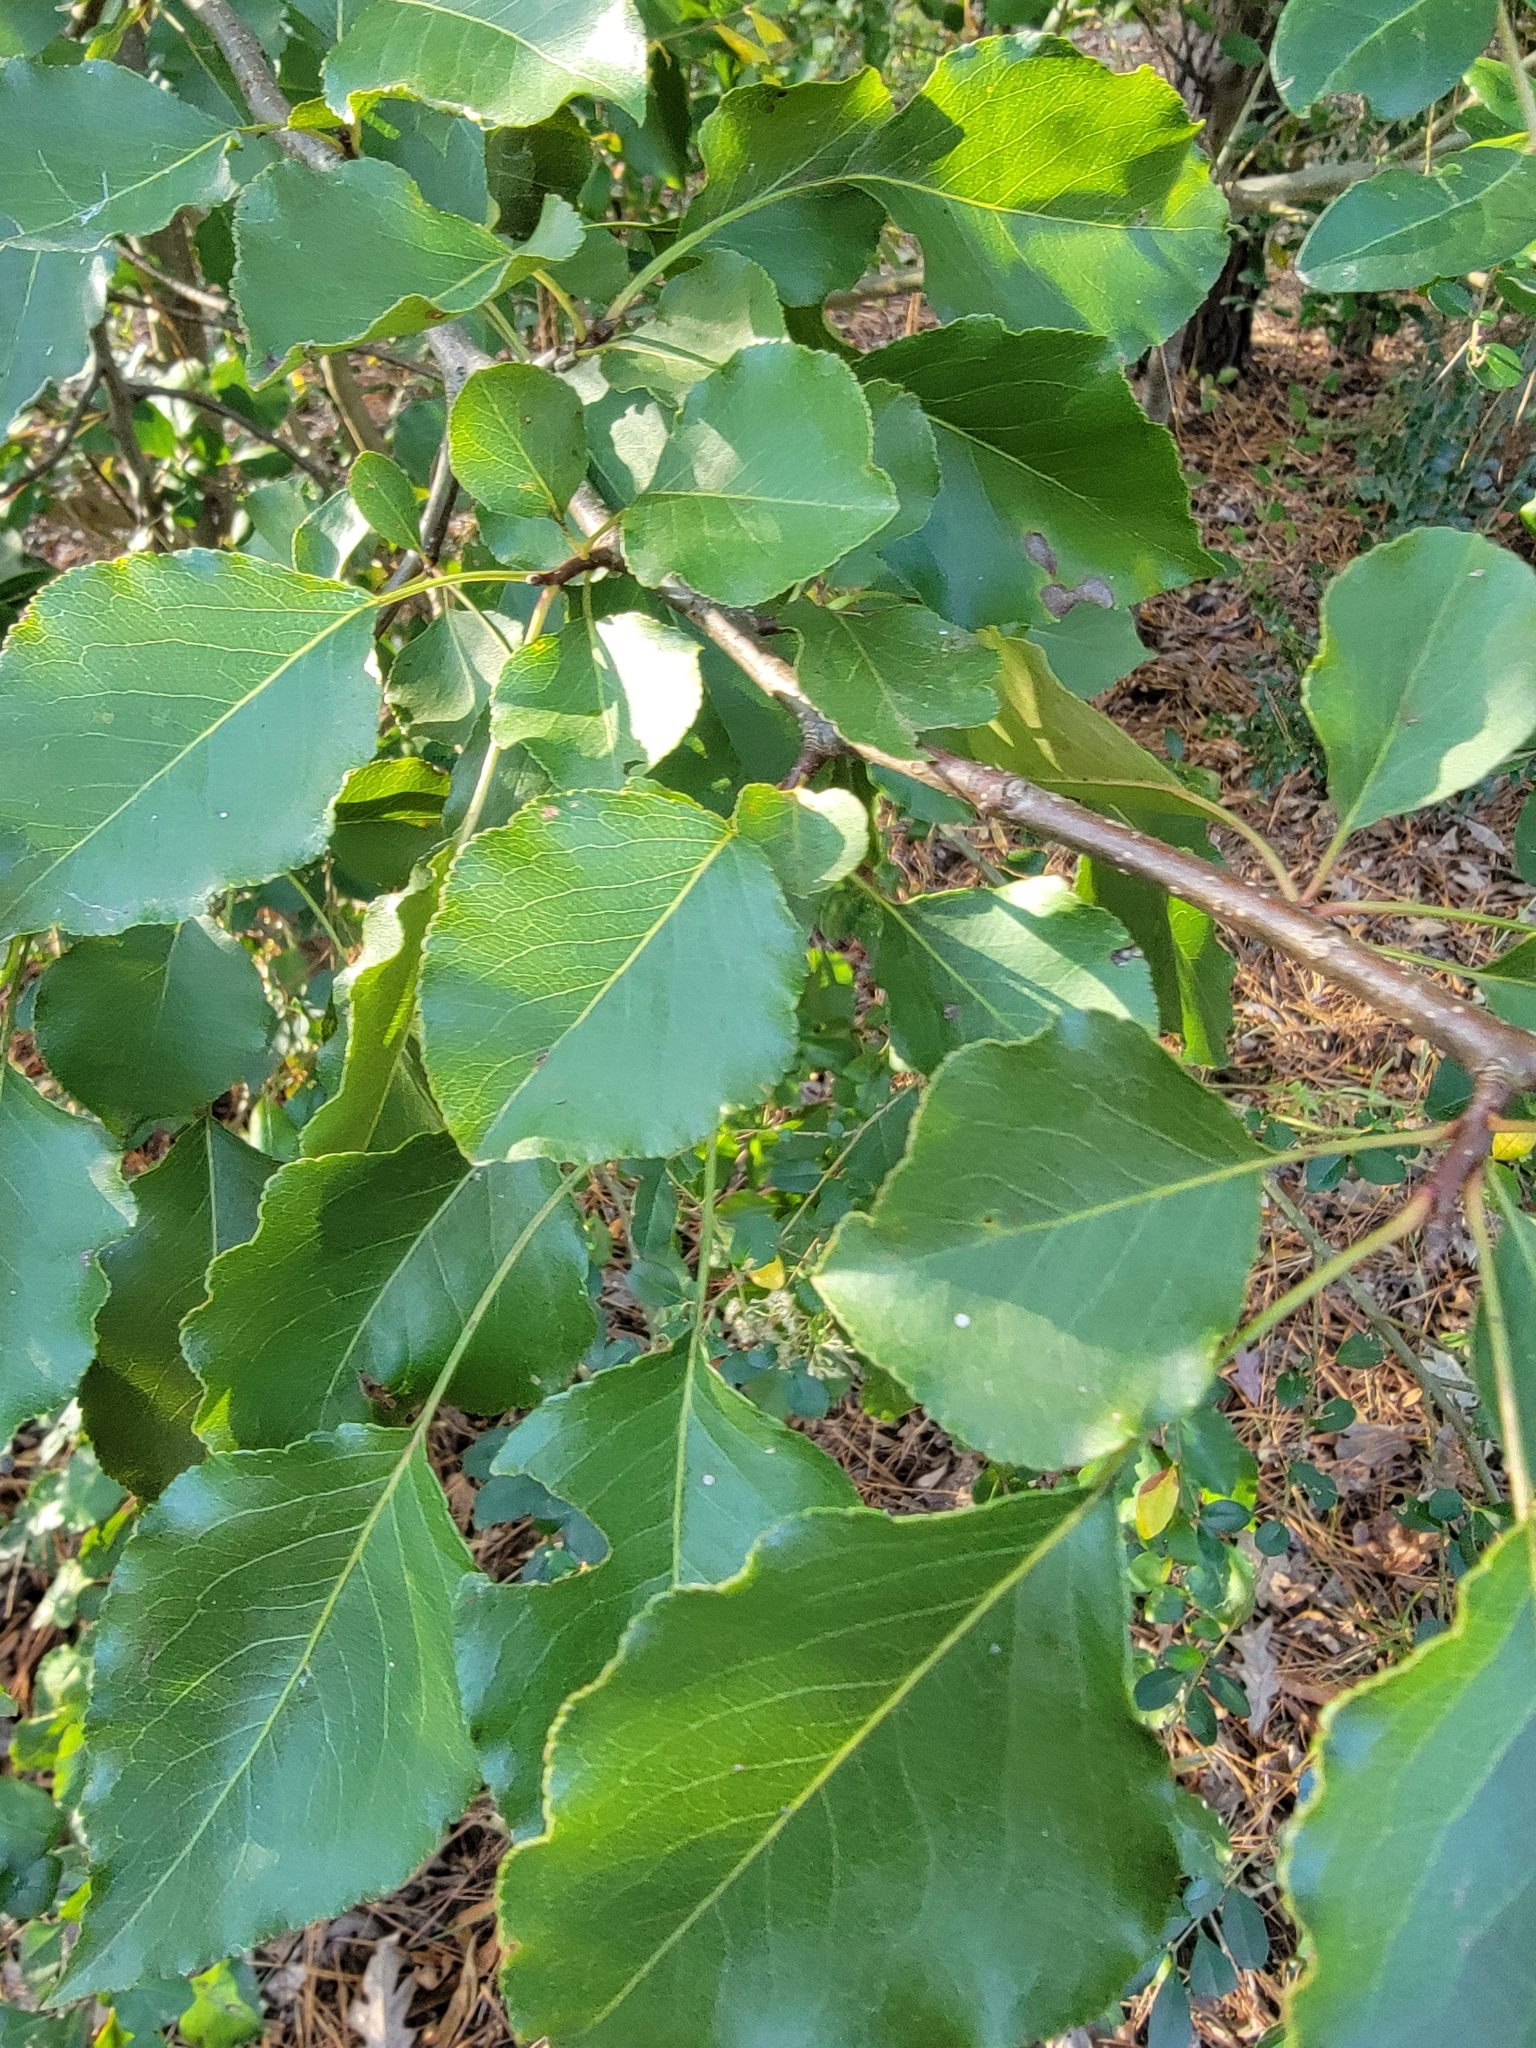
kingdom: Plantae
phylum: Tracheophyta
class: Magnoliopsida
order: Rosales
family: Rosaceae
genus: Pyrus
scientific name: Pyrus calleryana
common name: Callery pear
